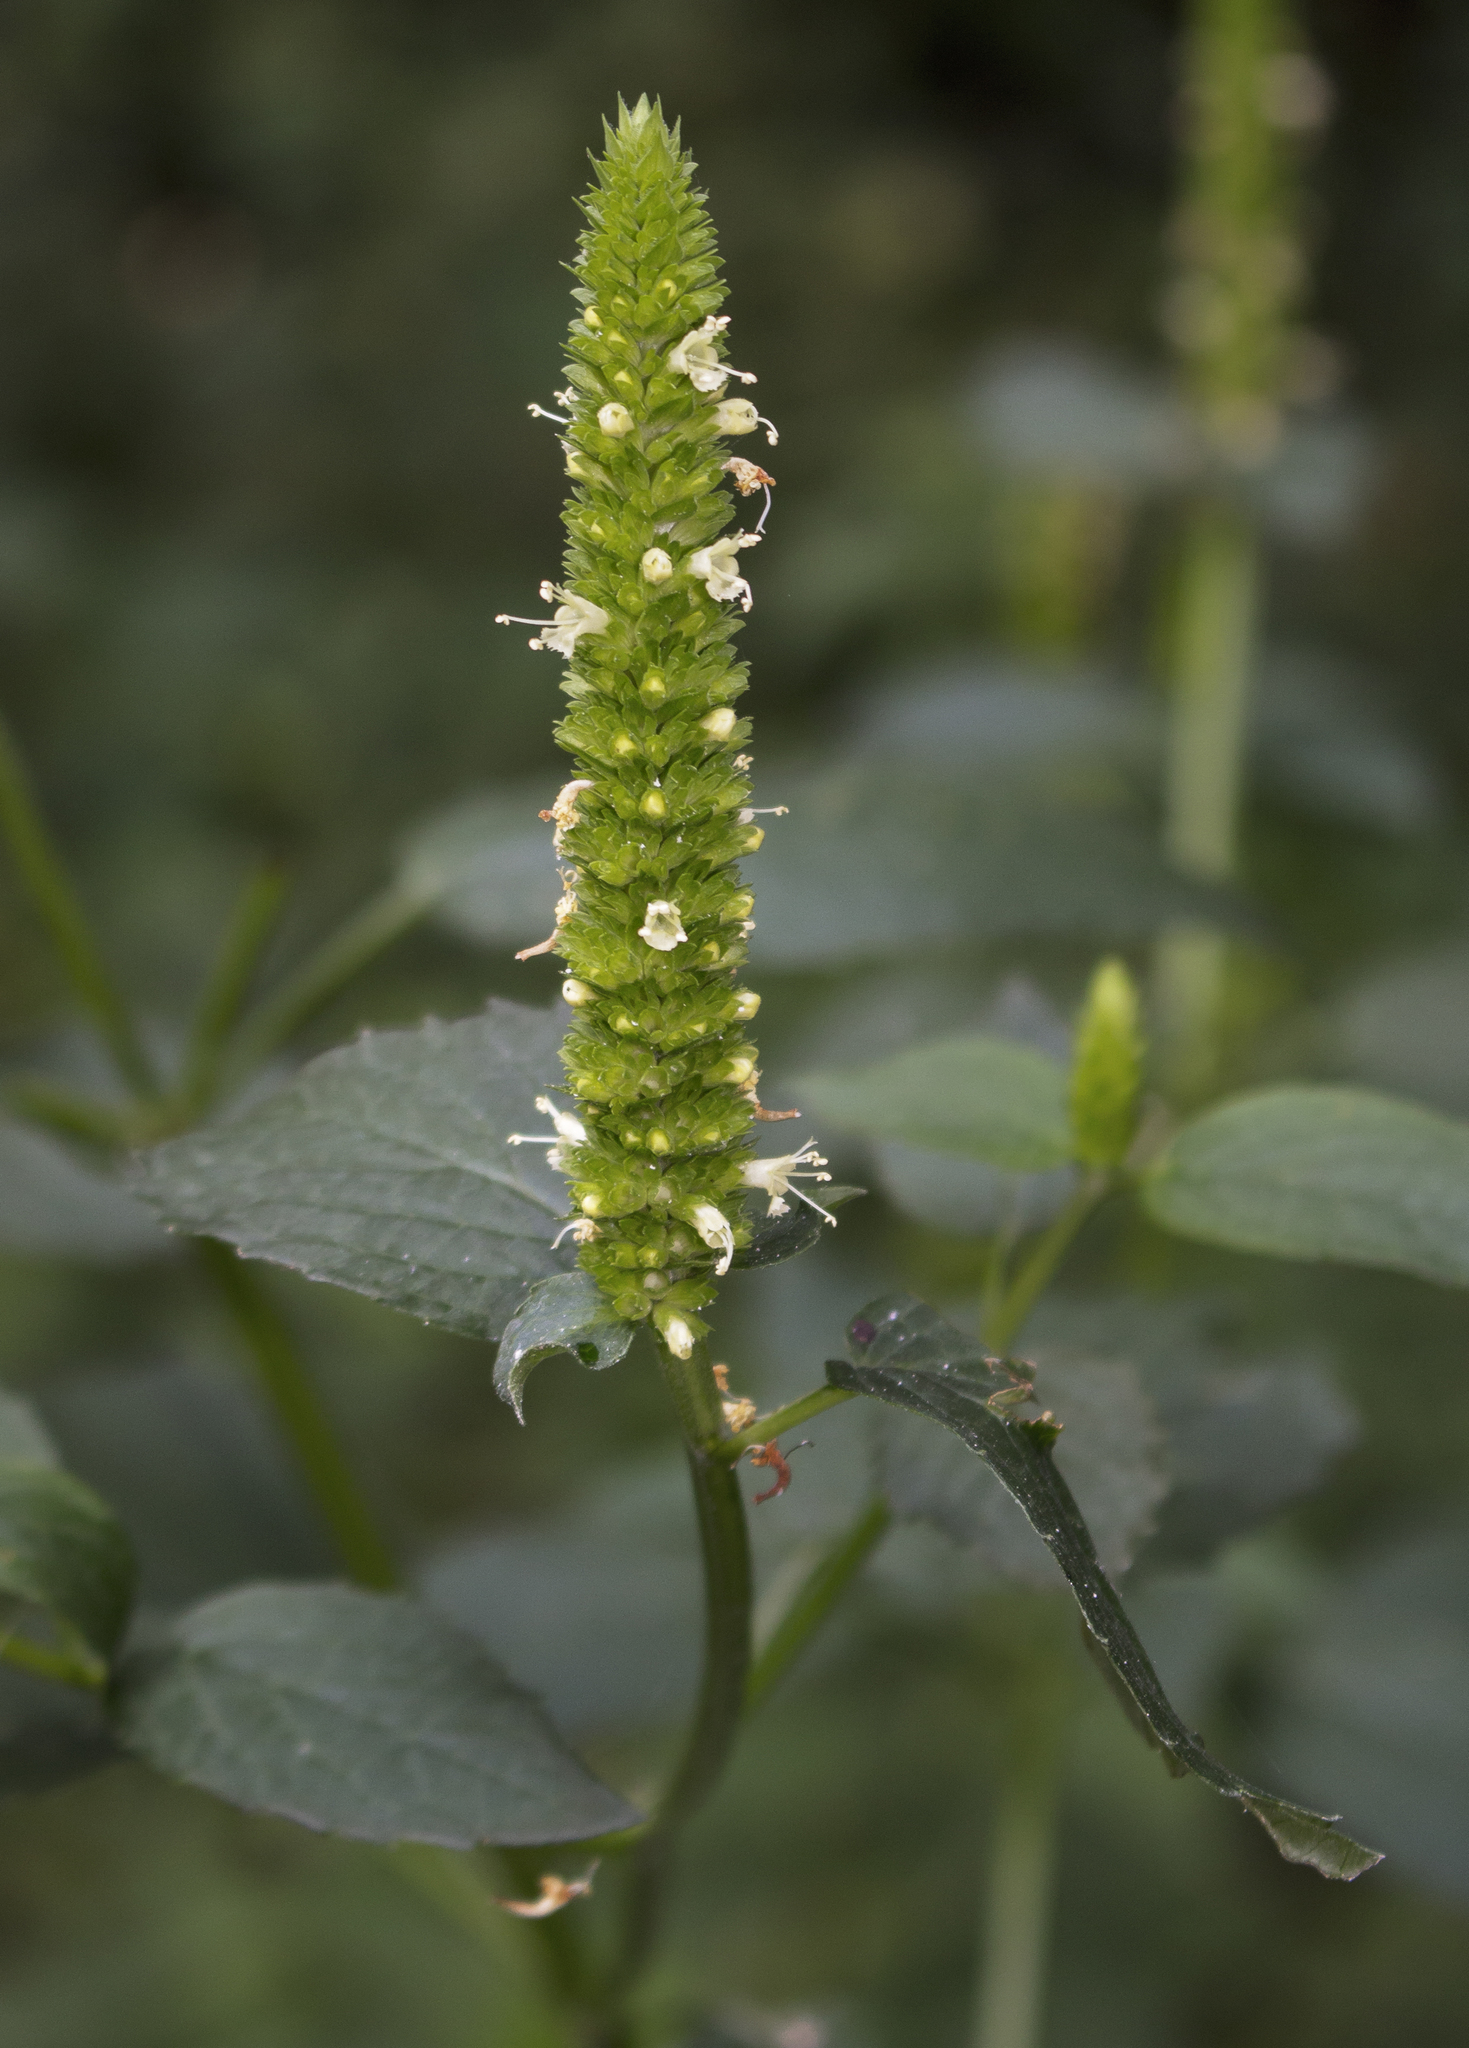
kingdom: Plantae
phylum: Tracheophyta
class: Magnoliopsida
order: Lamiales
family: Lamiaceae
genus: Agastache
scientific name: Agastache nepetoides
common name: Catnip giant hyssop
